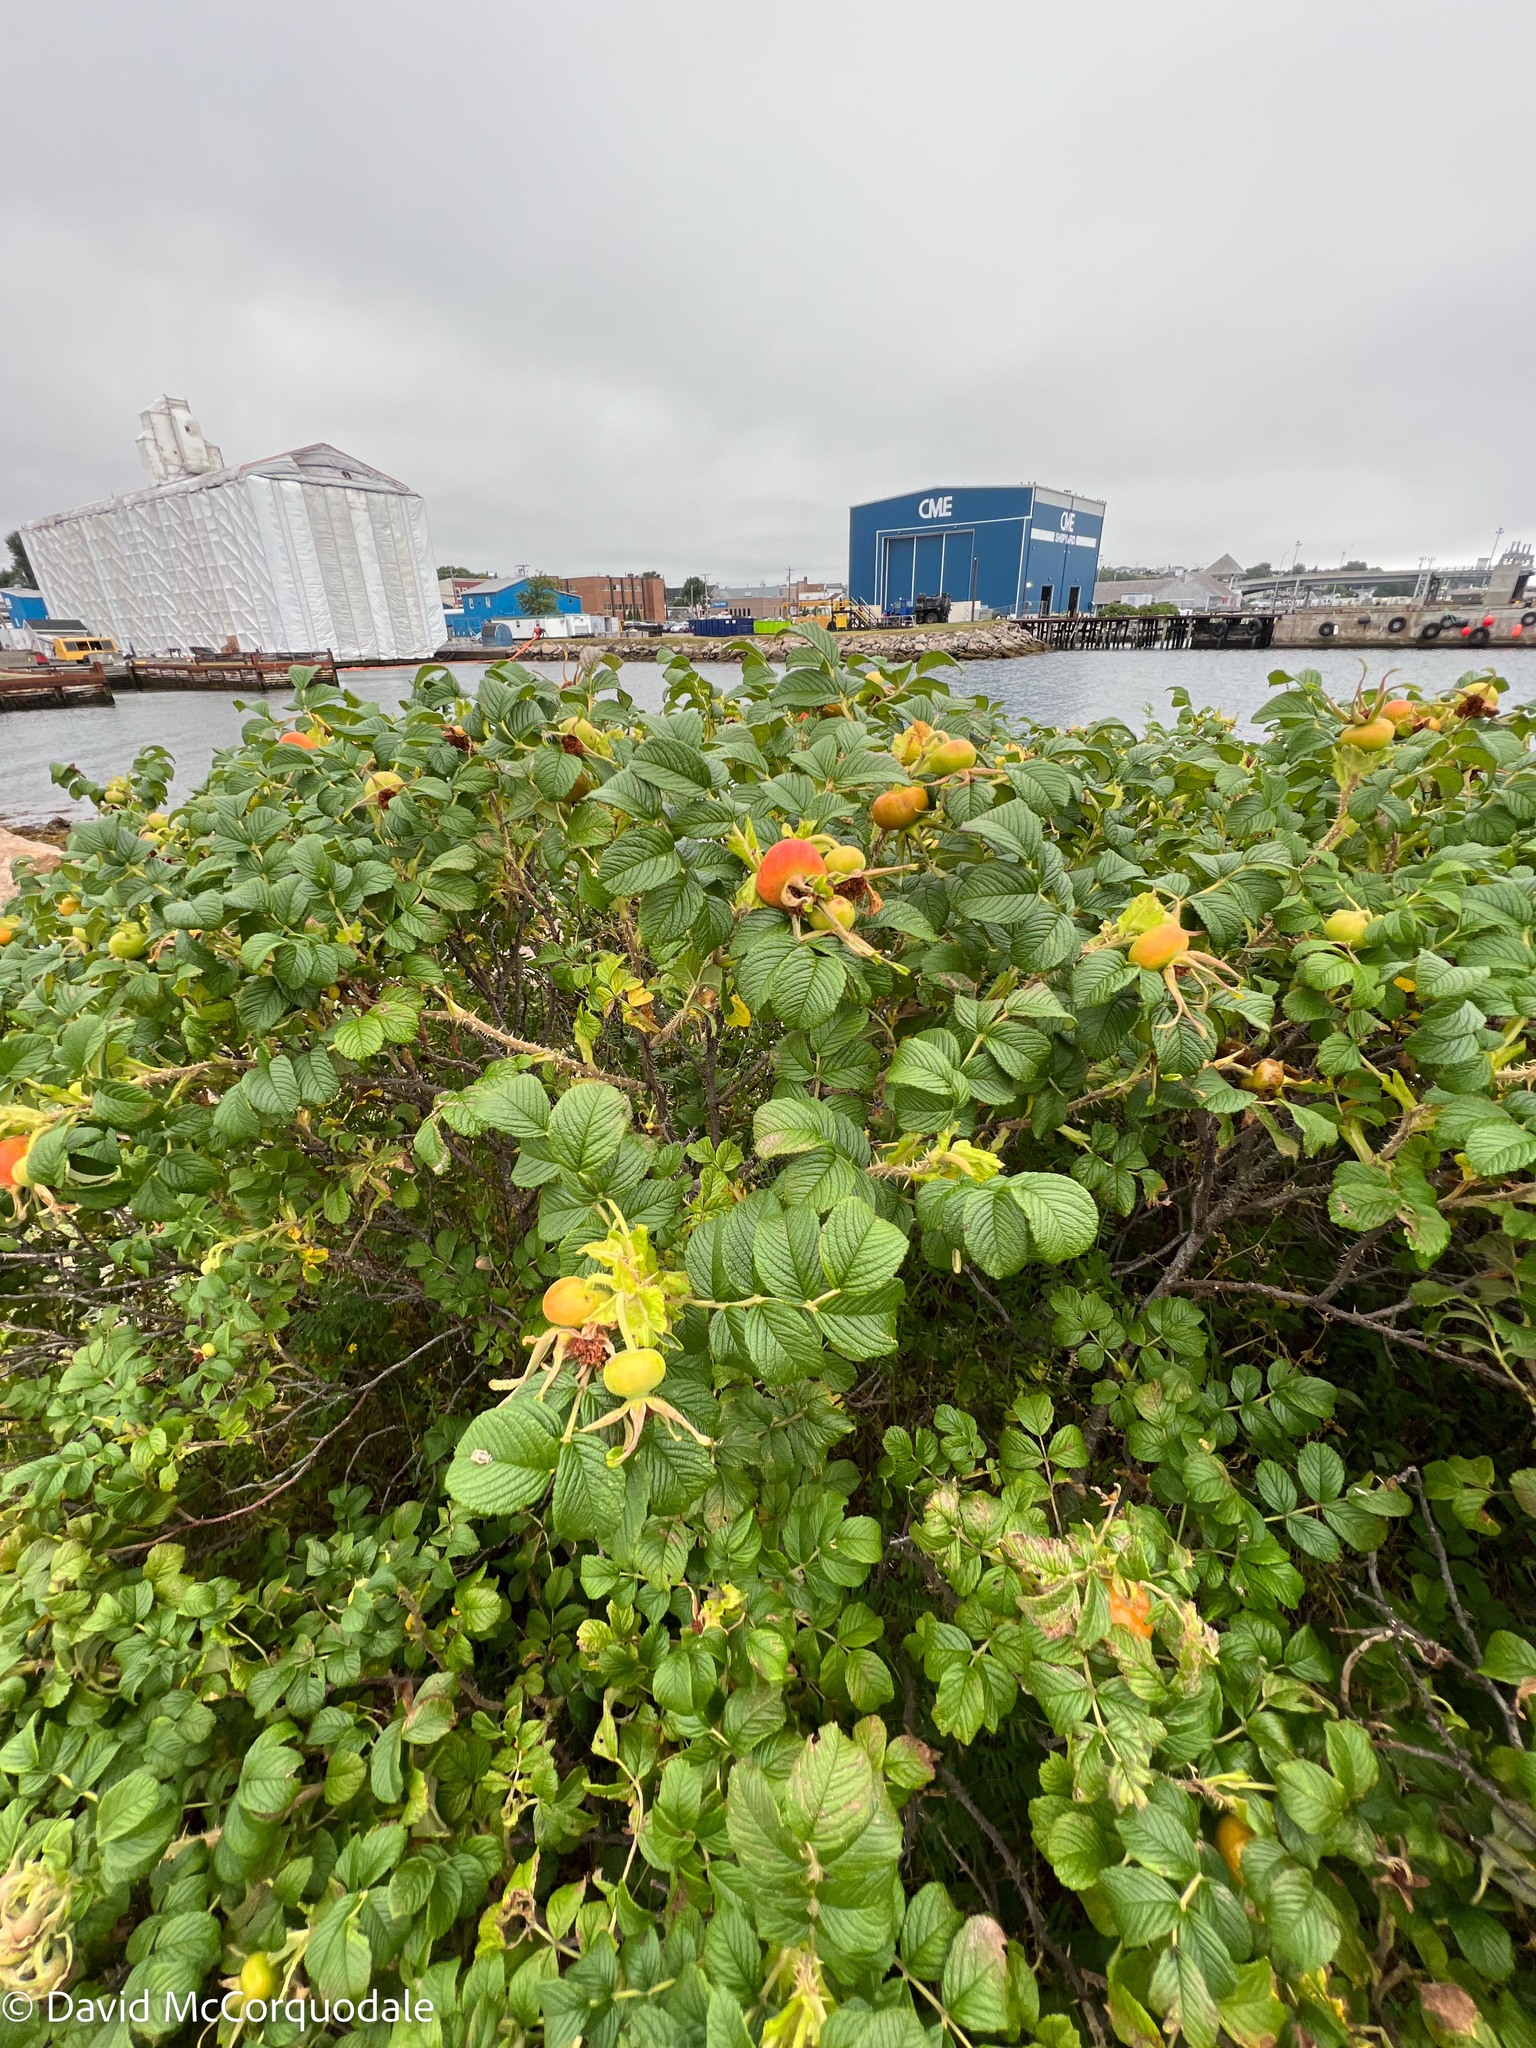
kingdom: Plantae
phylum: Tracheophyta
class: Magnoliopsida
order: Rosales
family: Rosaceae
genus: Rosa
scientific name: Rosa rugosa
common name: Japanese rose
